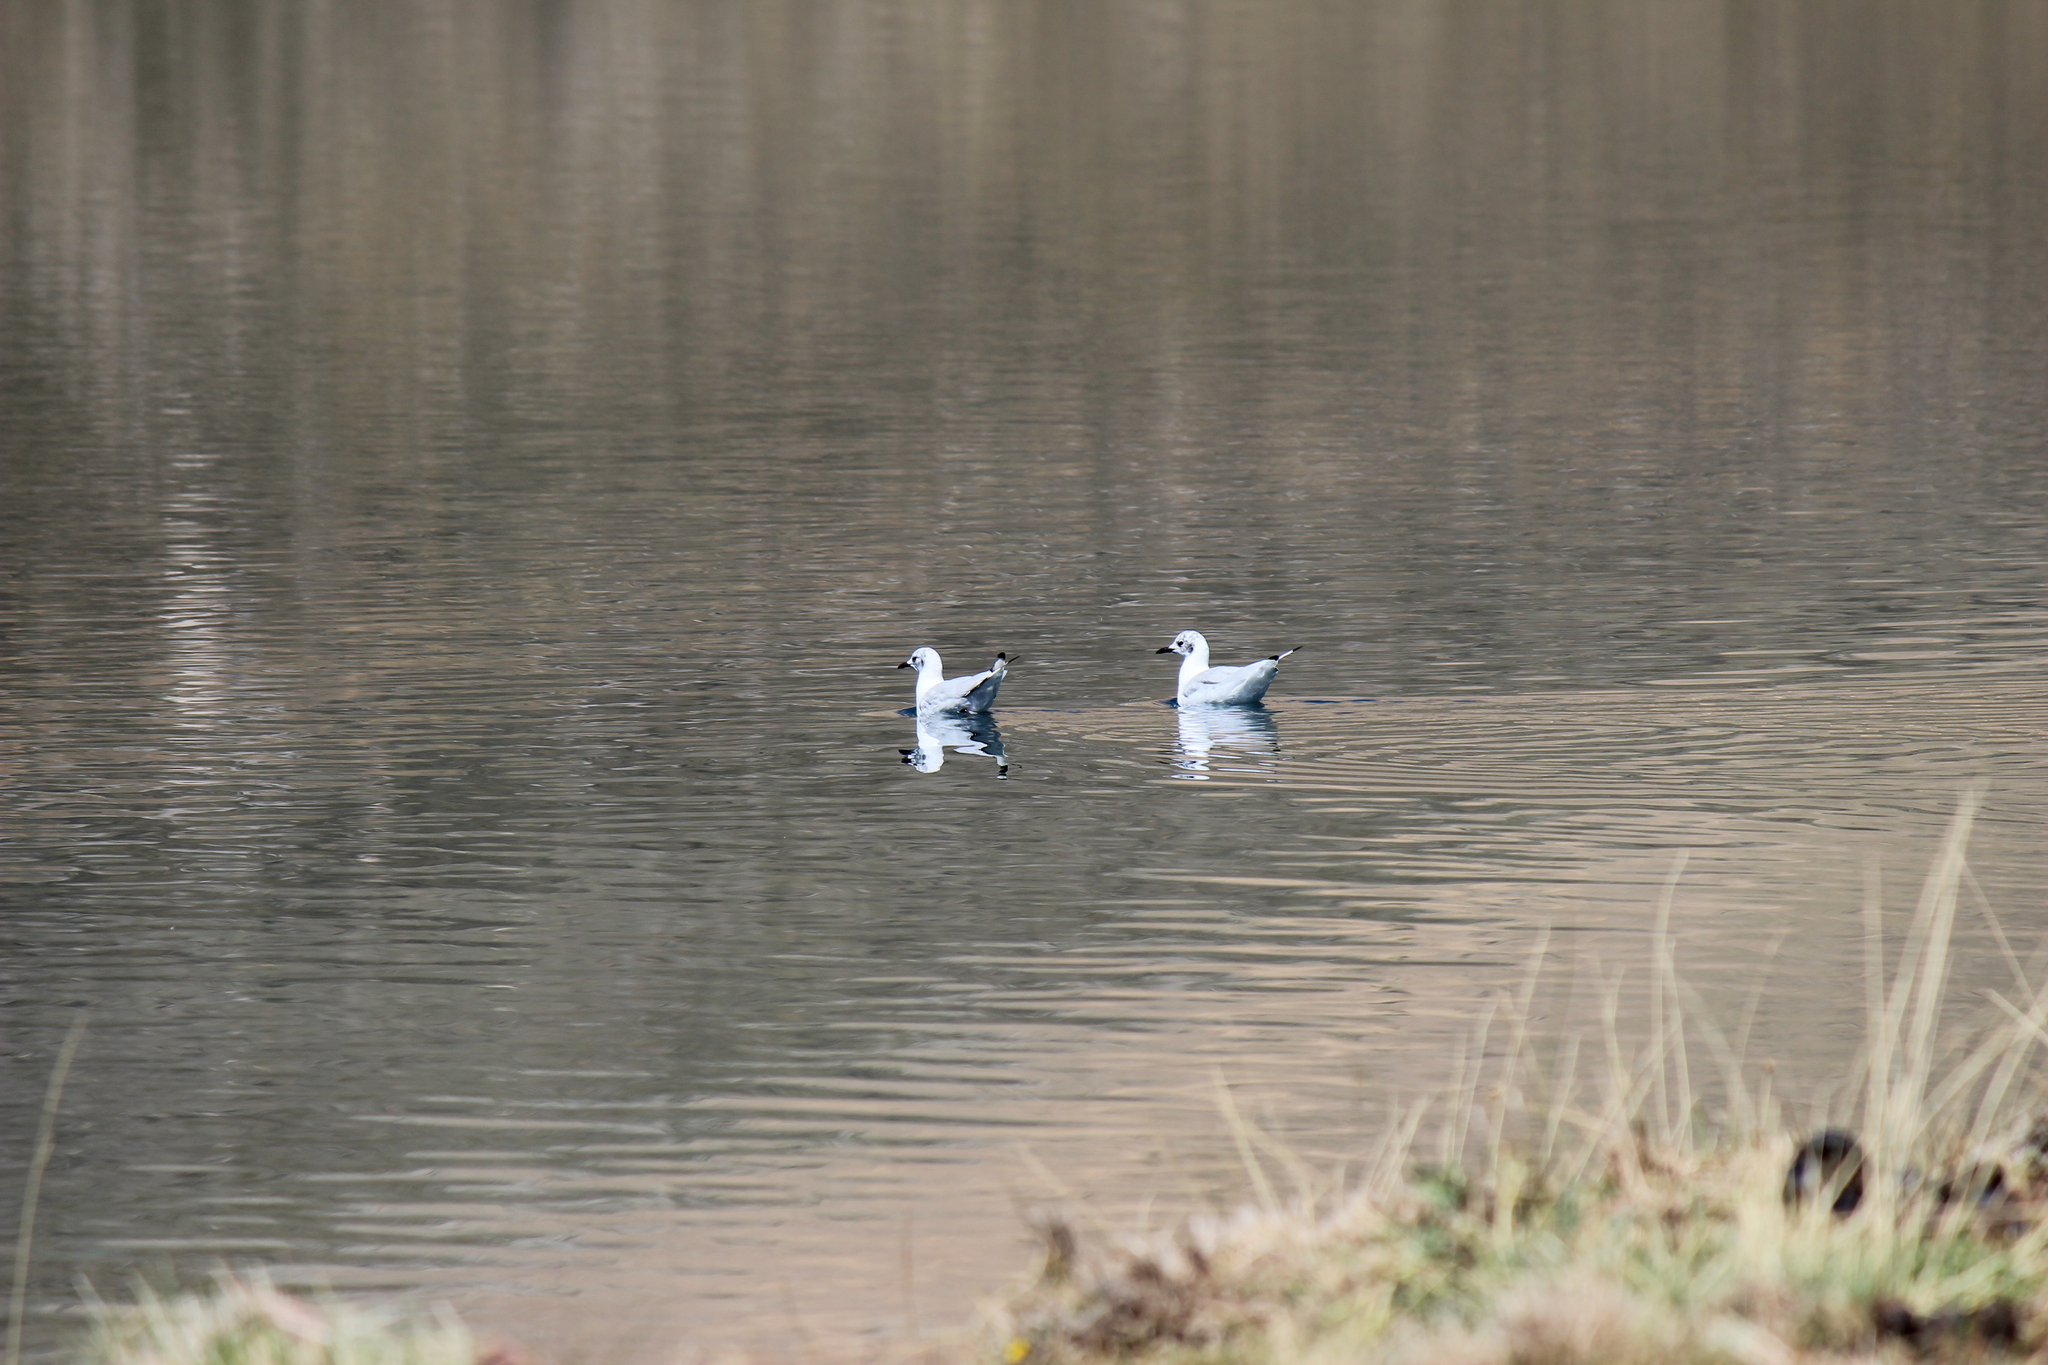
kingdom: Animalia
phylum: Chordata
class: Aves
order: Charadriiformes
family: Laridae
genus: Chroicocephalus
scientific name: Chroicocephalus serranus
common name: Andean gull
